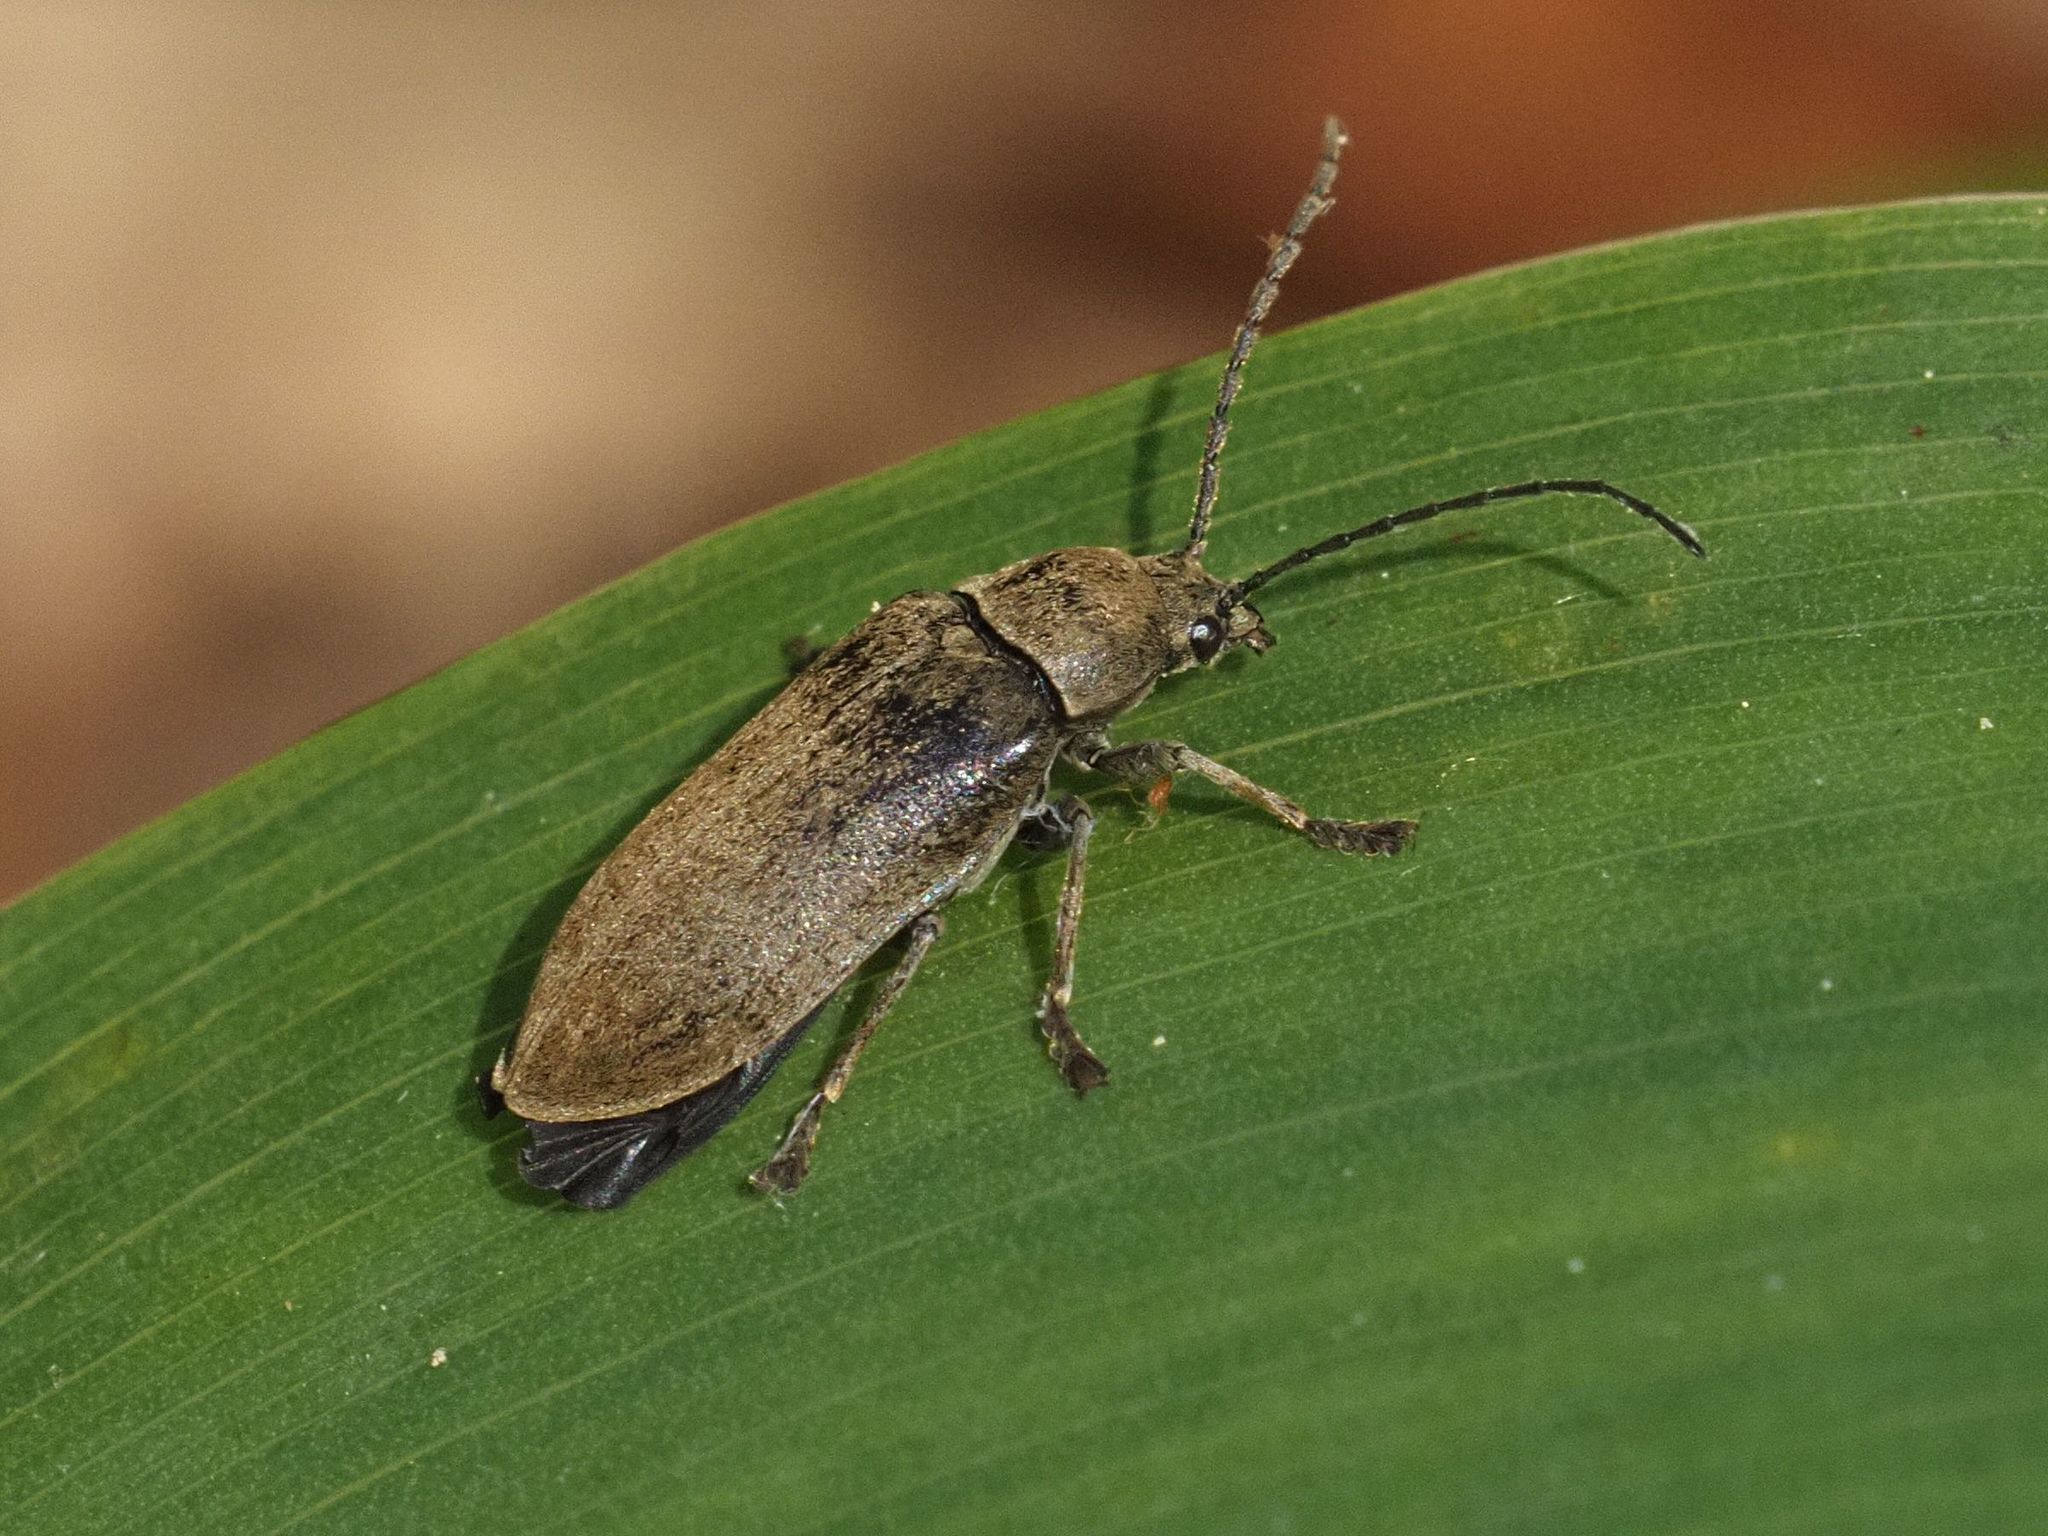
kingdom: Animalia
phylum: Arthropoda
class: Insecta
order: Coleoptera
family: Dascillidae
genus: Dascillus
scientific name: Dascillus cervinus
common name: Orchid beetle
